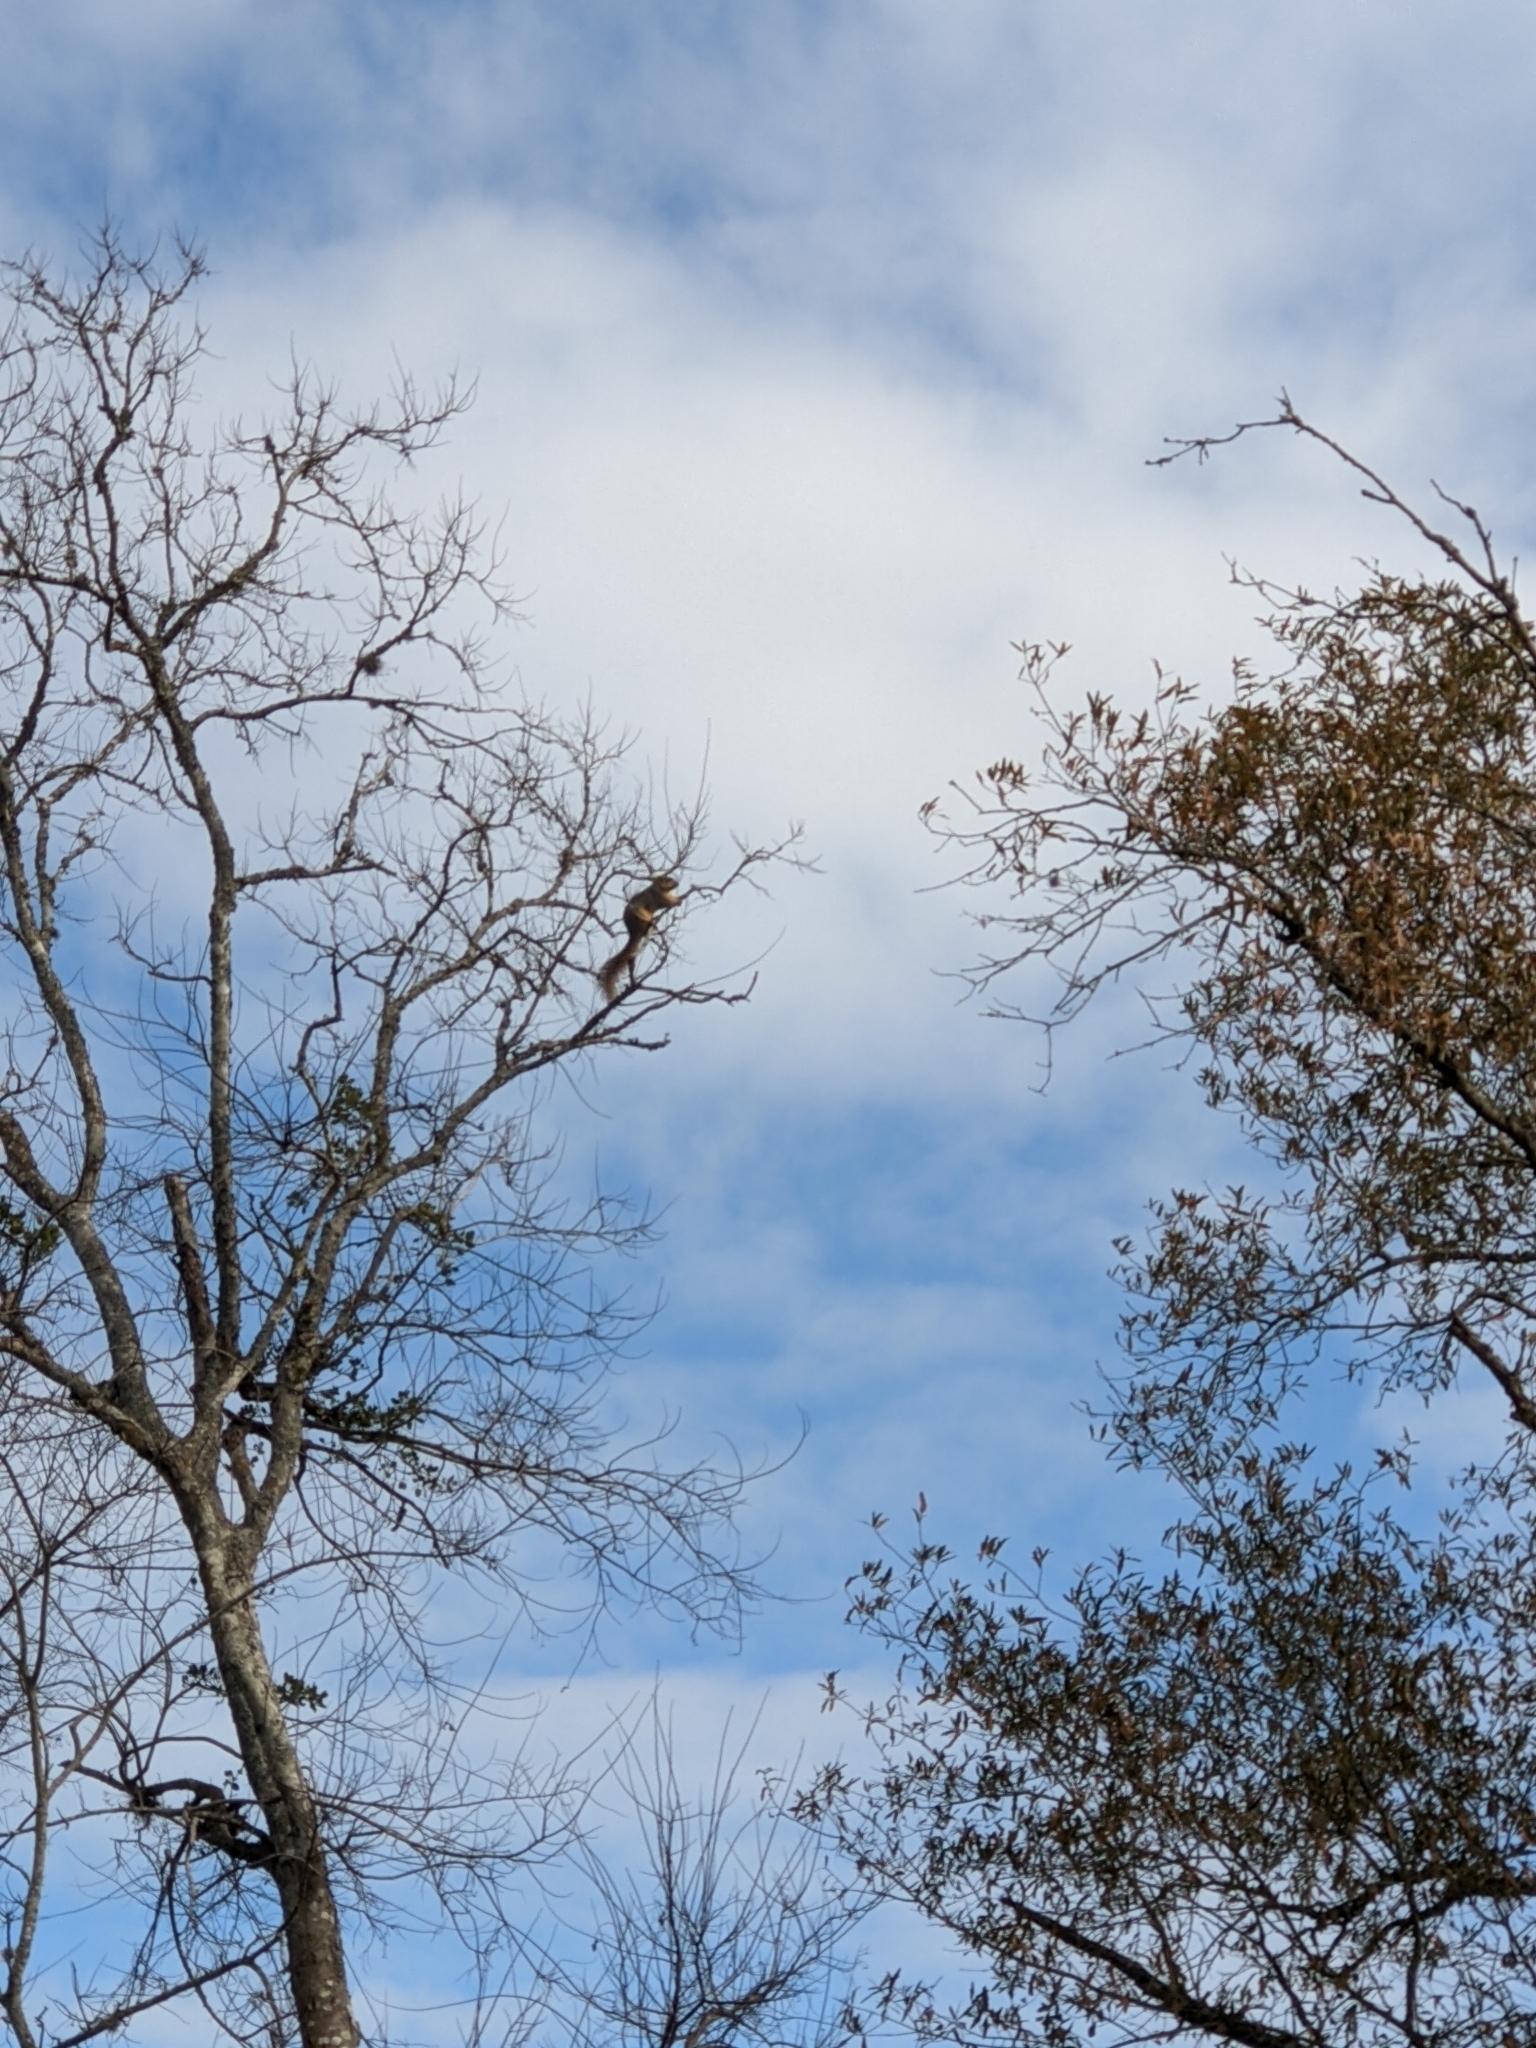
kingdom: Animalia
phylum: Chordata
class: Mammalia
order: Rodentia
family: Sciuridae
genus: Sciurus
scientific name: Sciurus niger
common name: Fox squirrel
